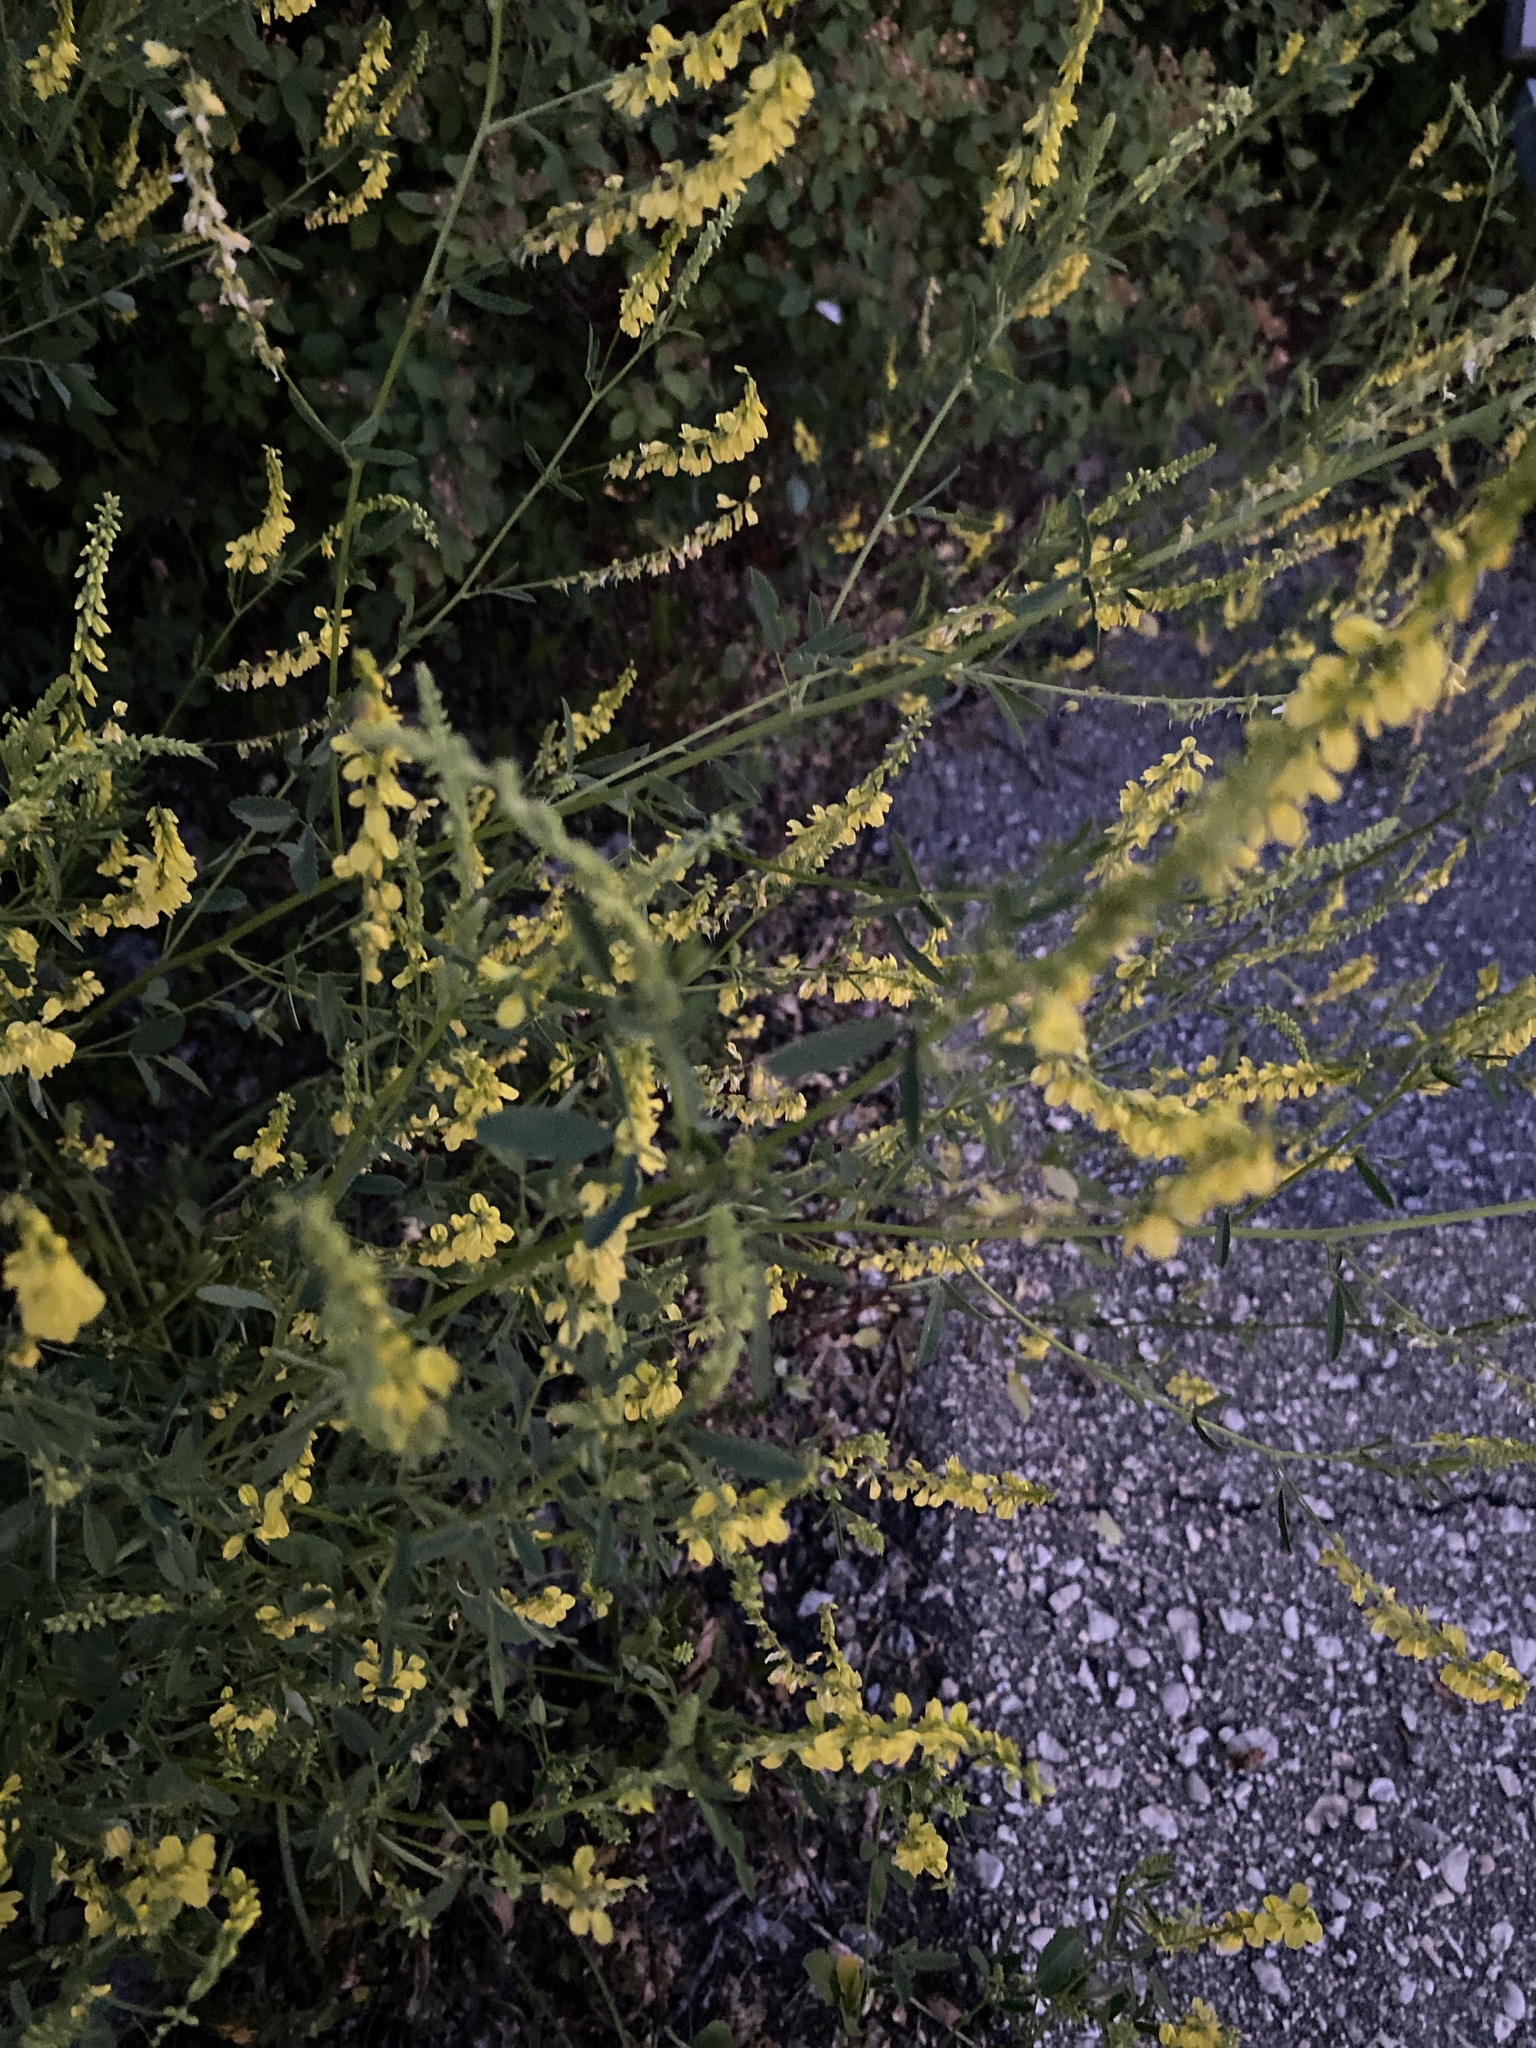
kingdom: Plantae
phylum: Tracheophyta
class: Magnoliopsida
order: Fabales
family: Fabaceae
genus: Melilotus
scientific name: Melilotus officinalis
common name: Sweetclover
